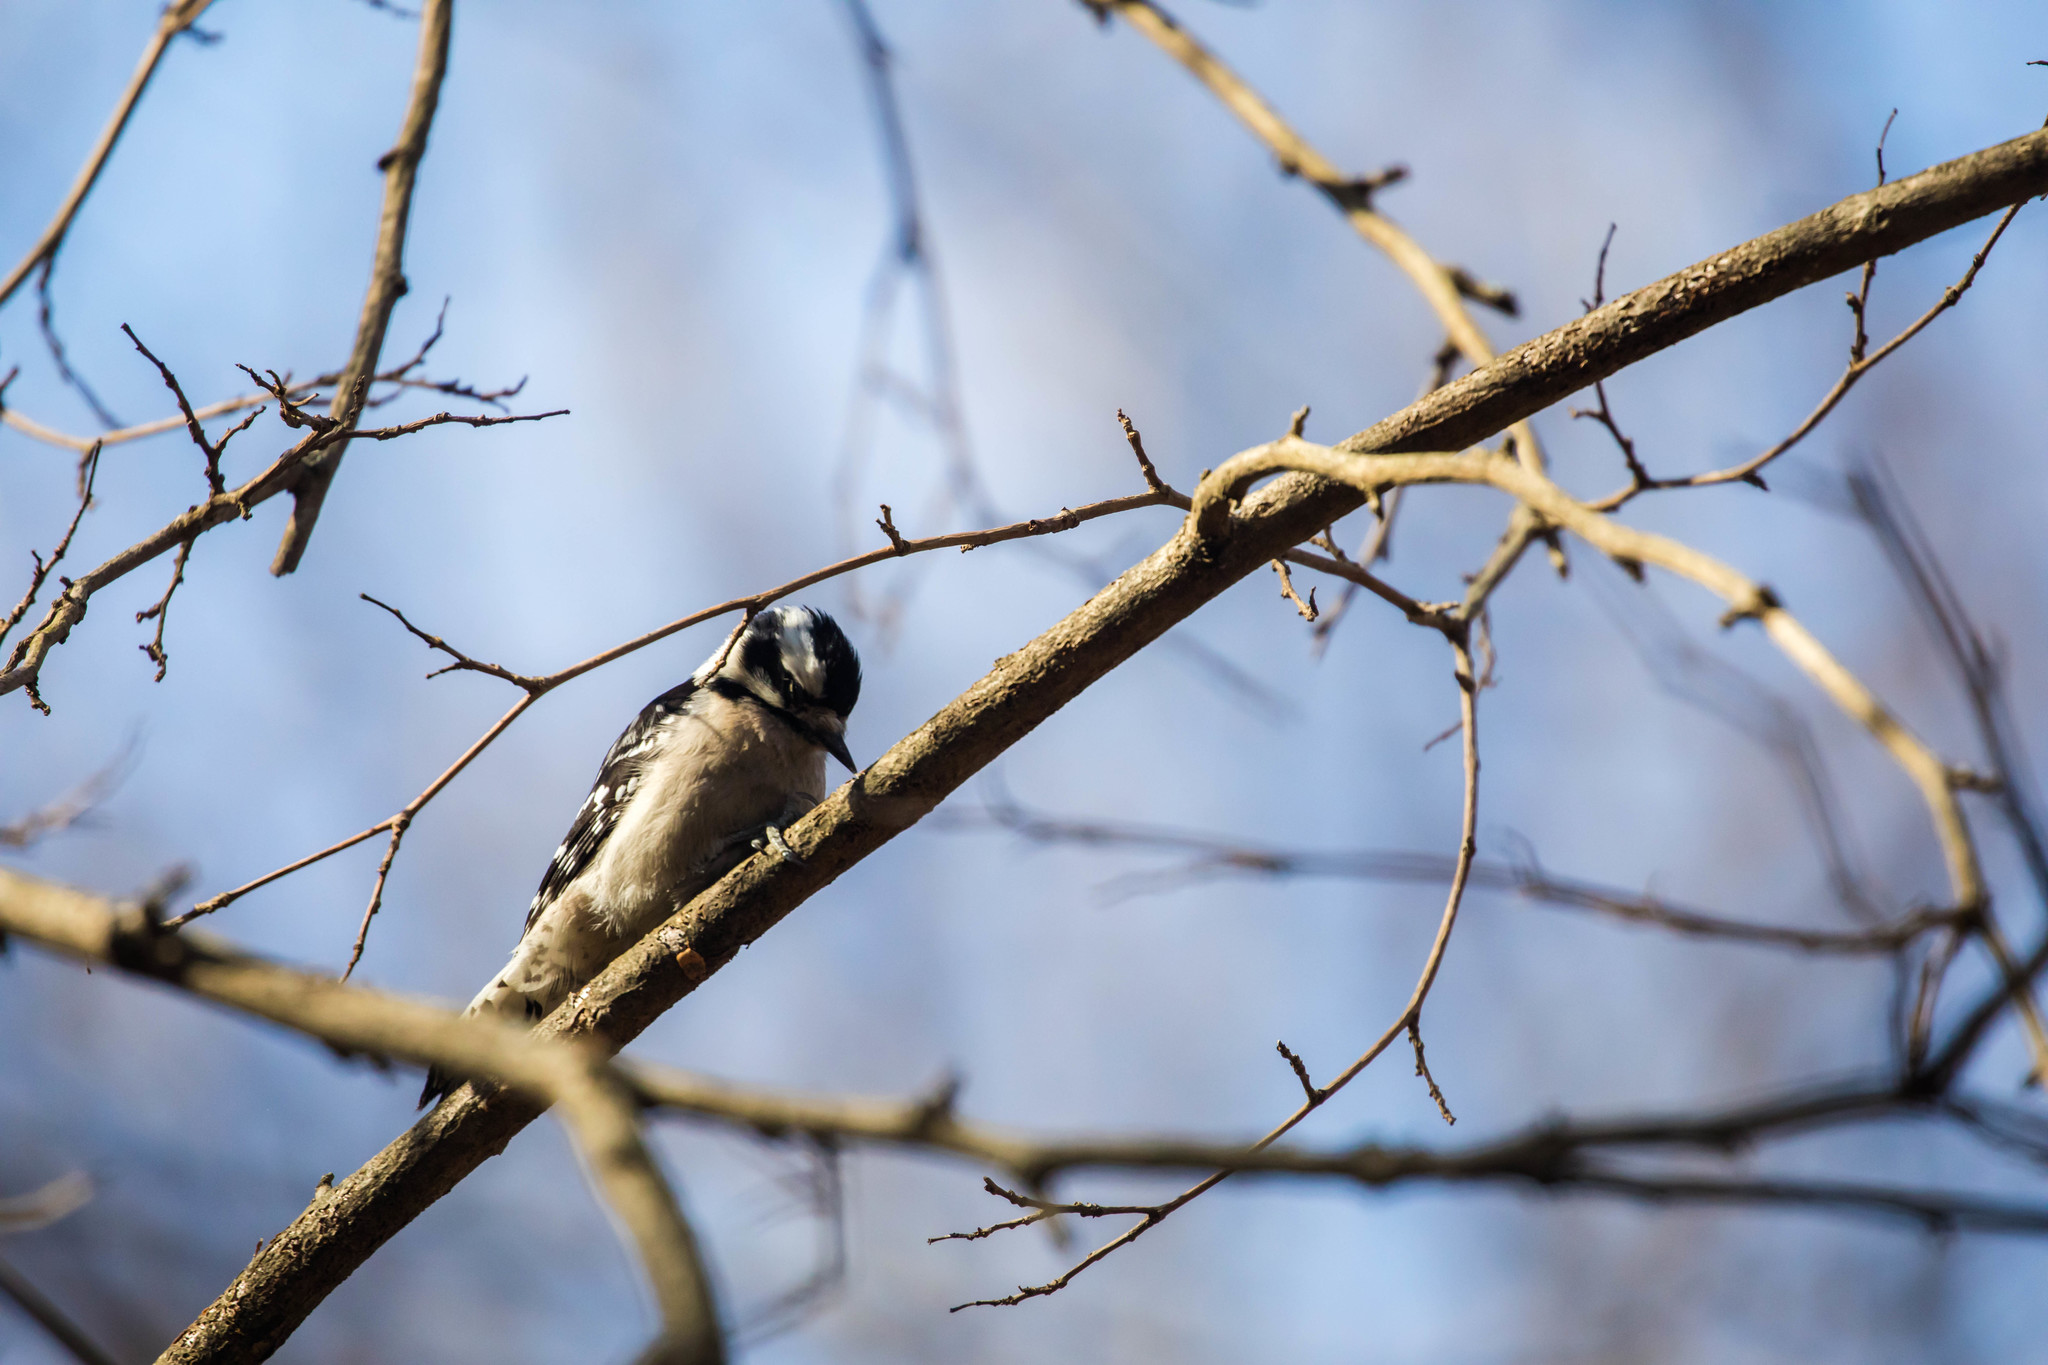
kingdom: Animalia
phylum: Chordata
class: Aves
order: Piciformes
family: Picidae
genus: Dryobates
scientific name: Dryobates pubescens
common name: Downy woodpecker
